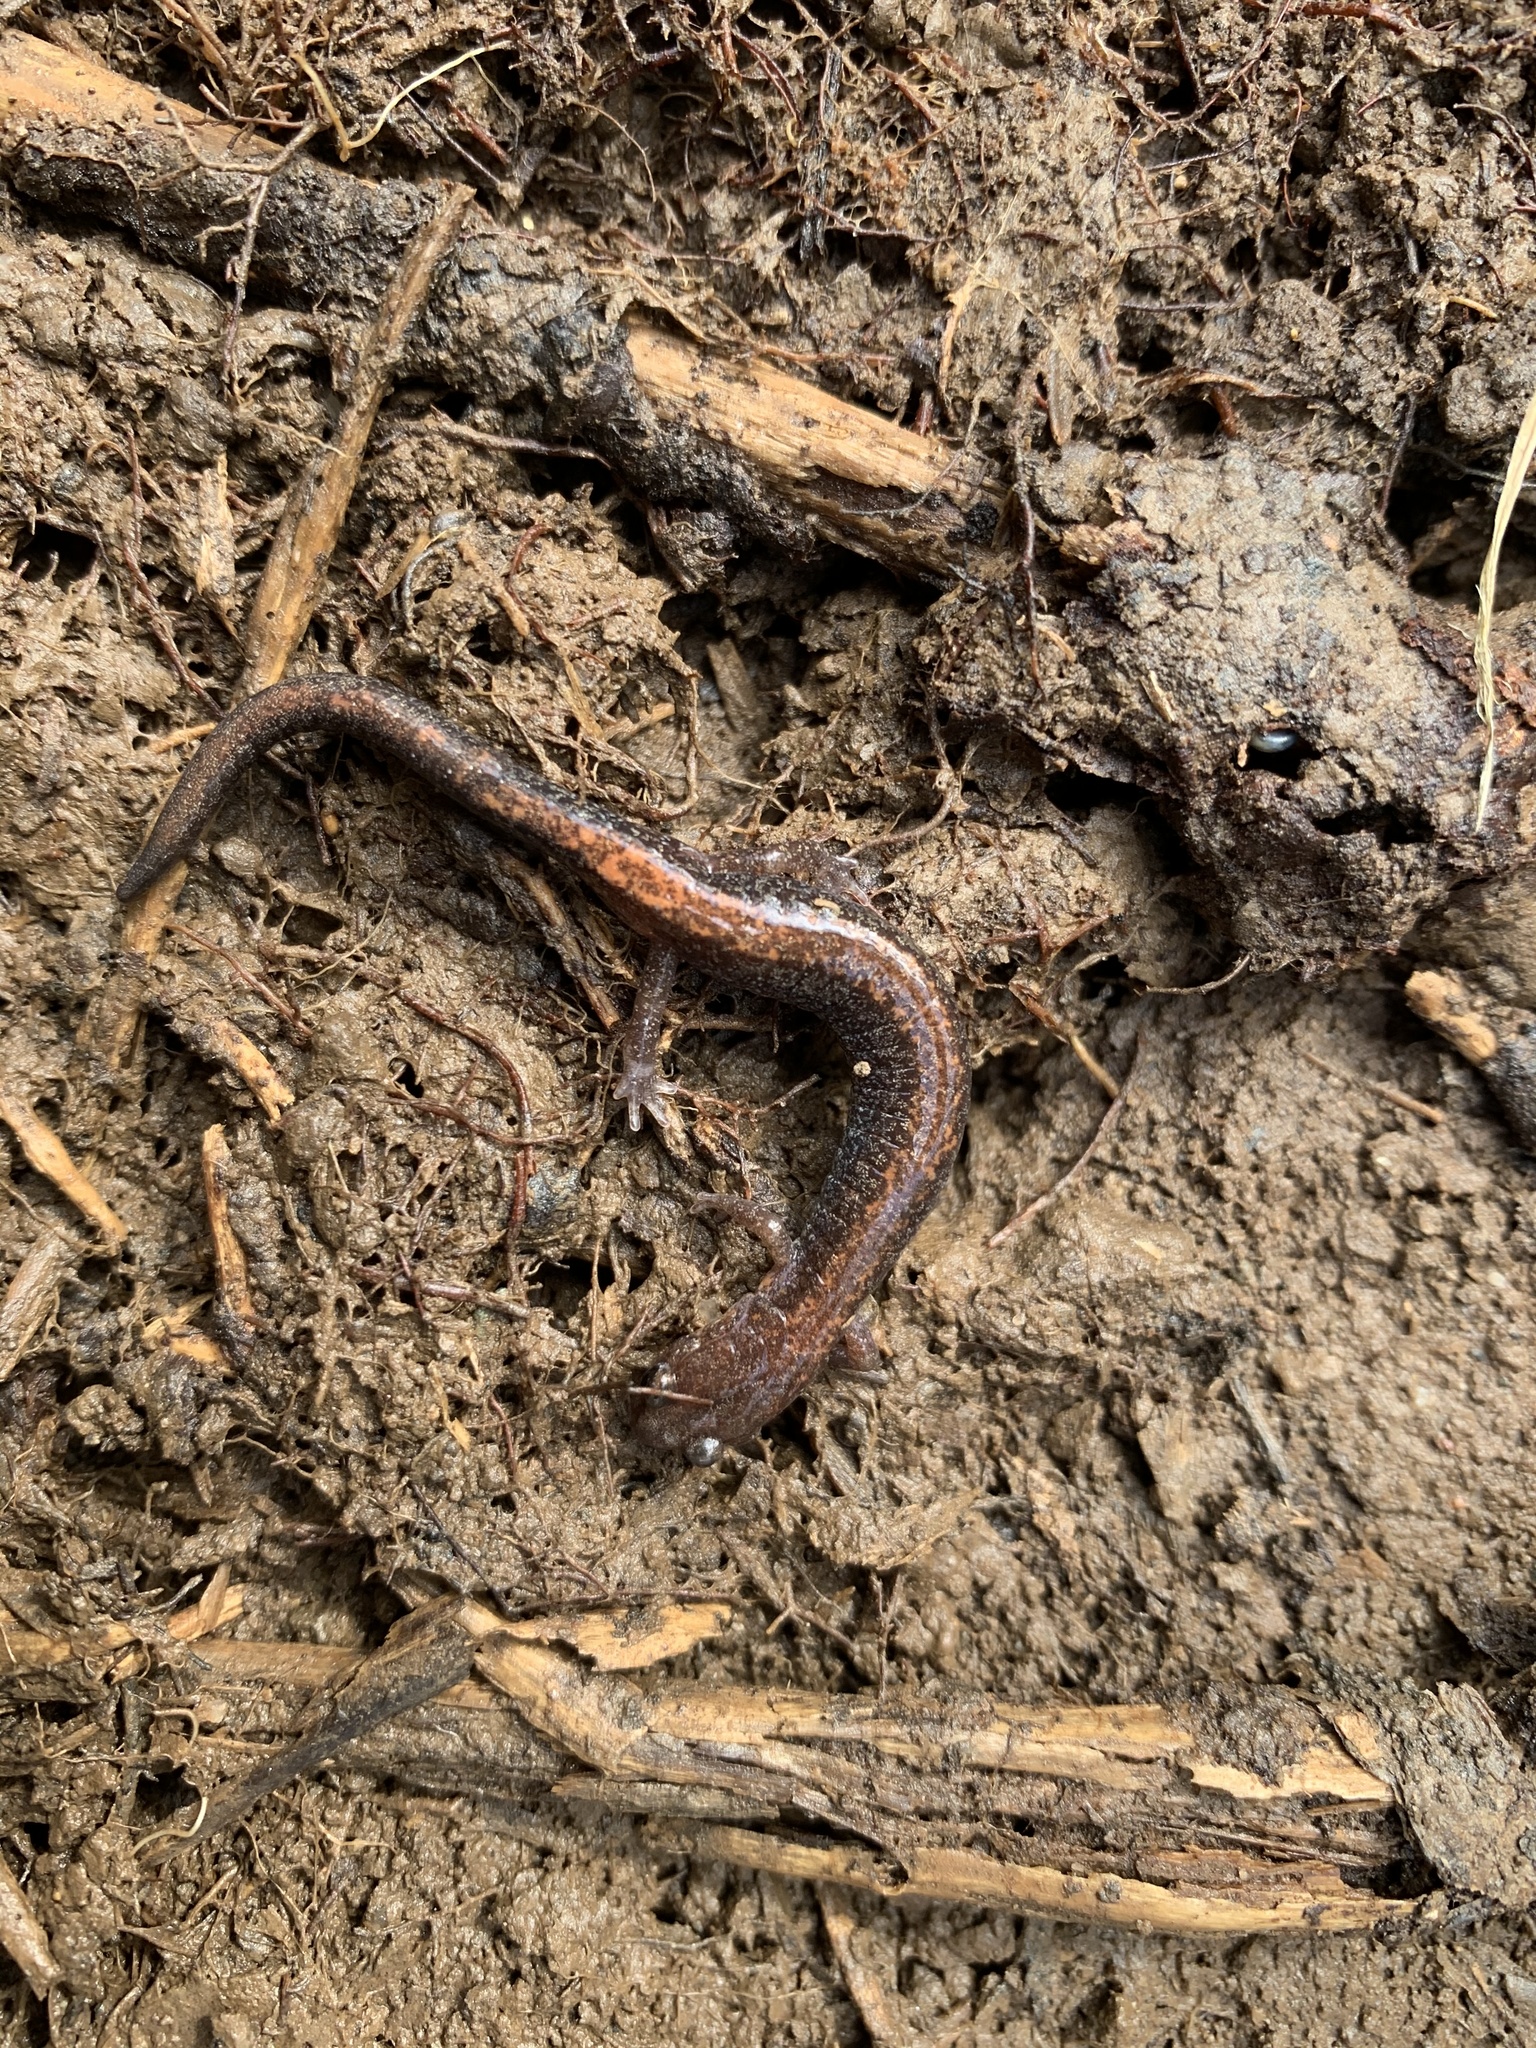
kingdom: Animalia
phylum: Chordata
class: Amphibia
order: Caudata
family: Plethodontidae
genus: Plethodon
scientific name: Plethodon cinereus
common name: Redback salamander
